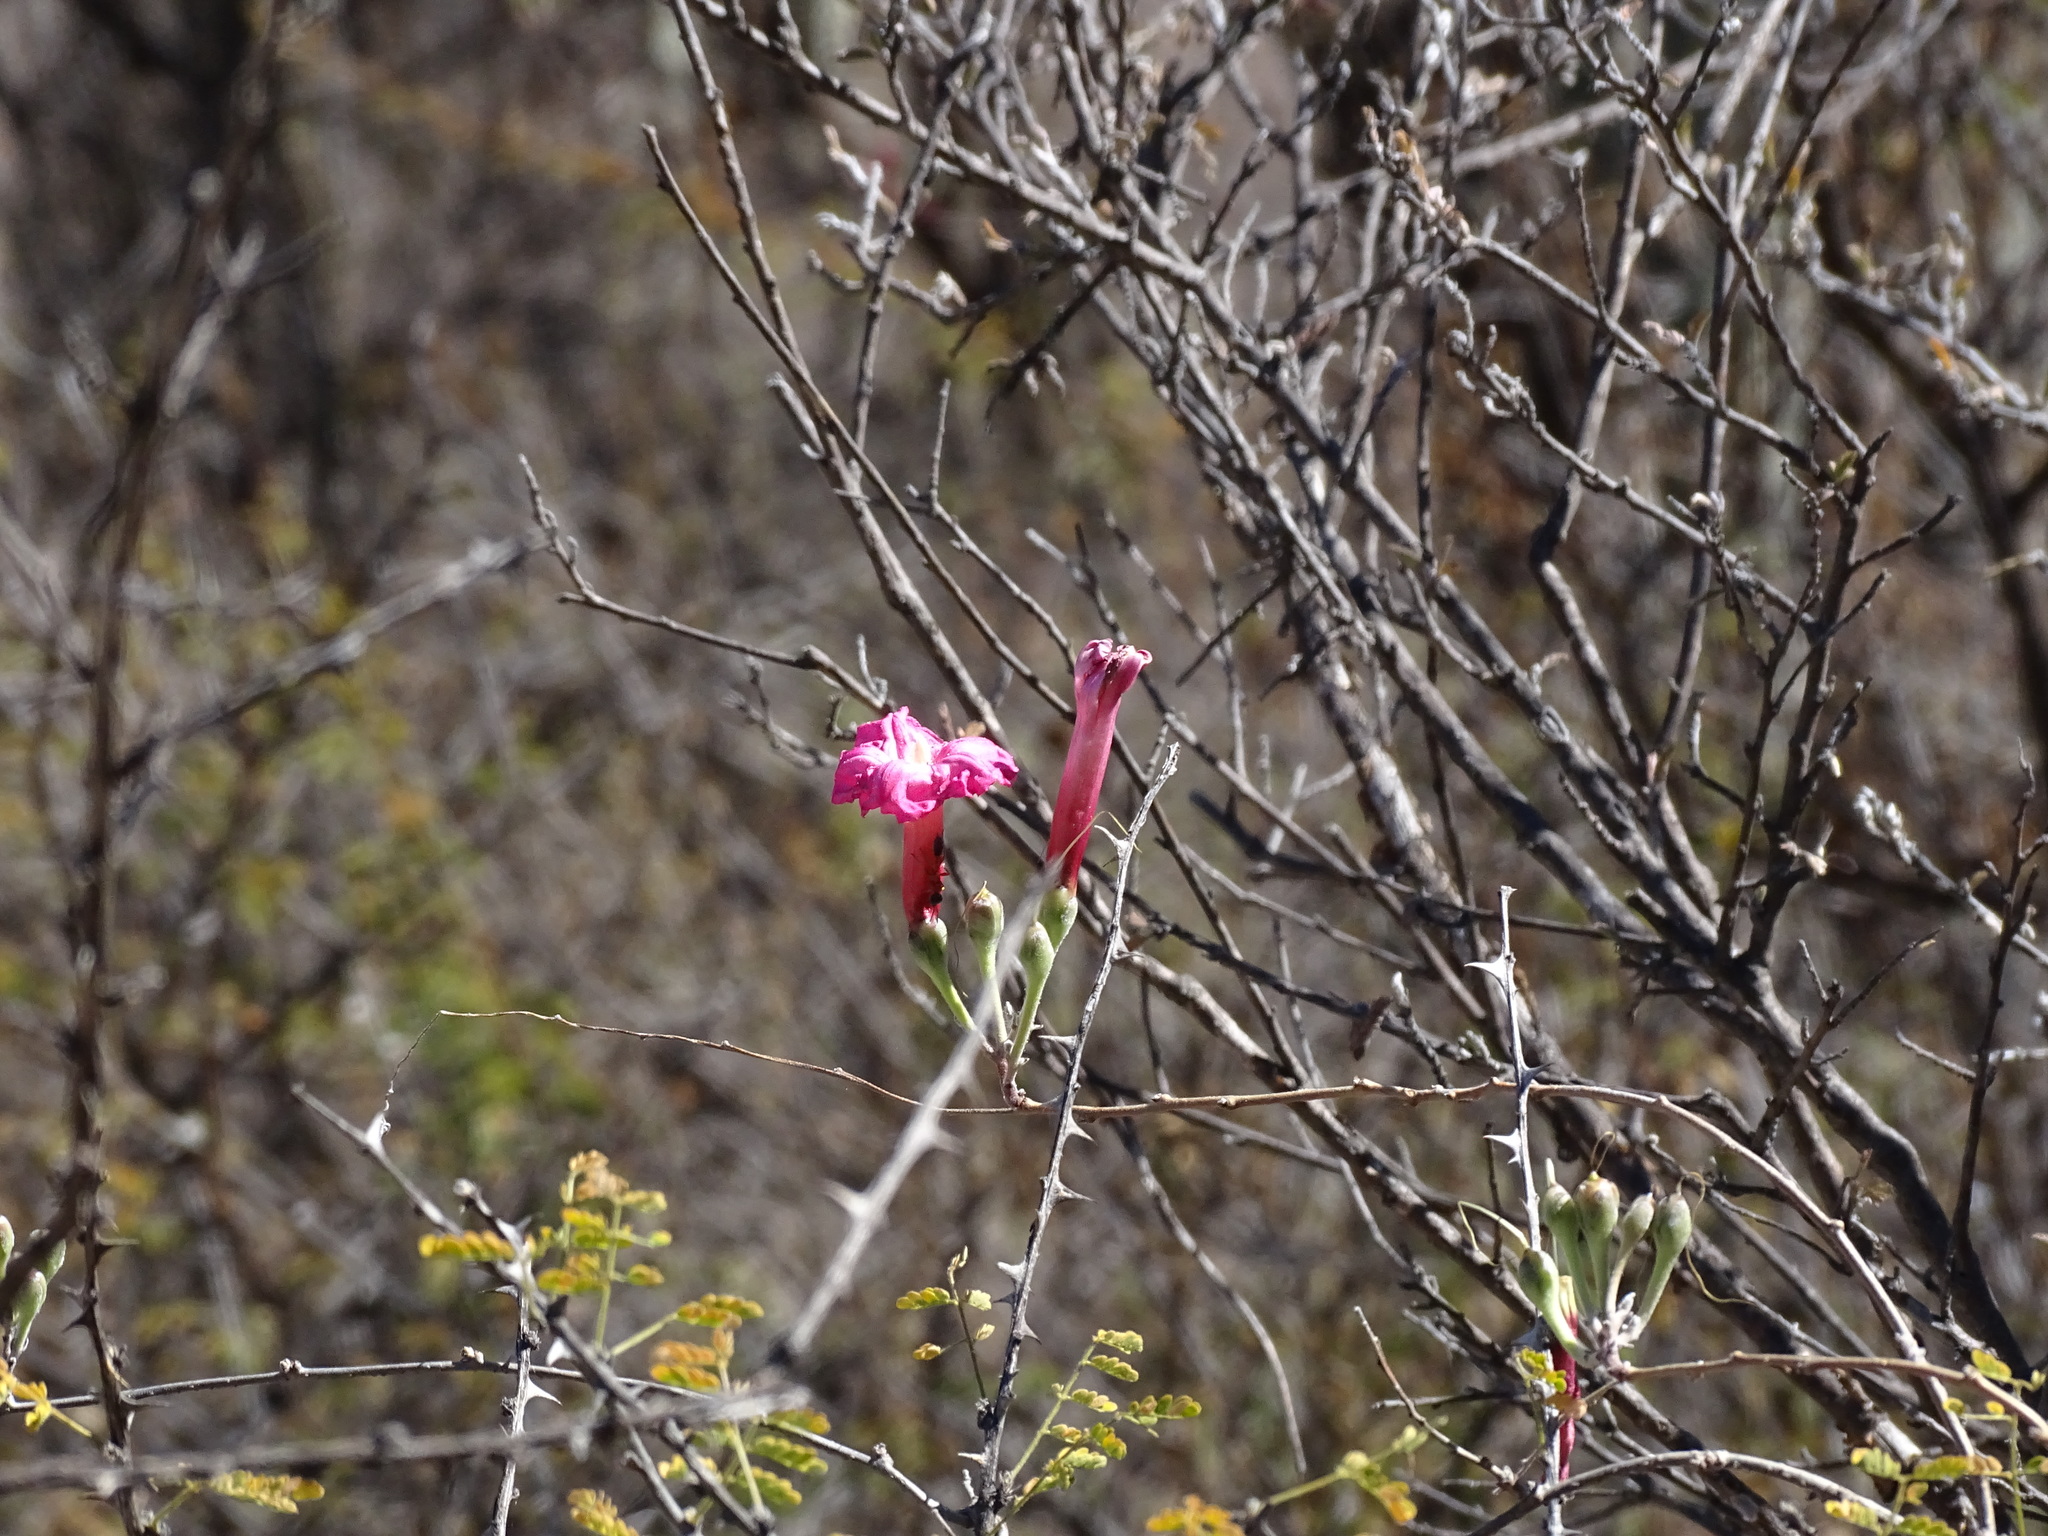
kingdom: Plantae
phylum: Tracheophyta
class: Magnoliopsida
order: Solanales
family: Convolvulaceae
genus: Ipomoea
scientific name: Ipomoea conzattii
